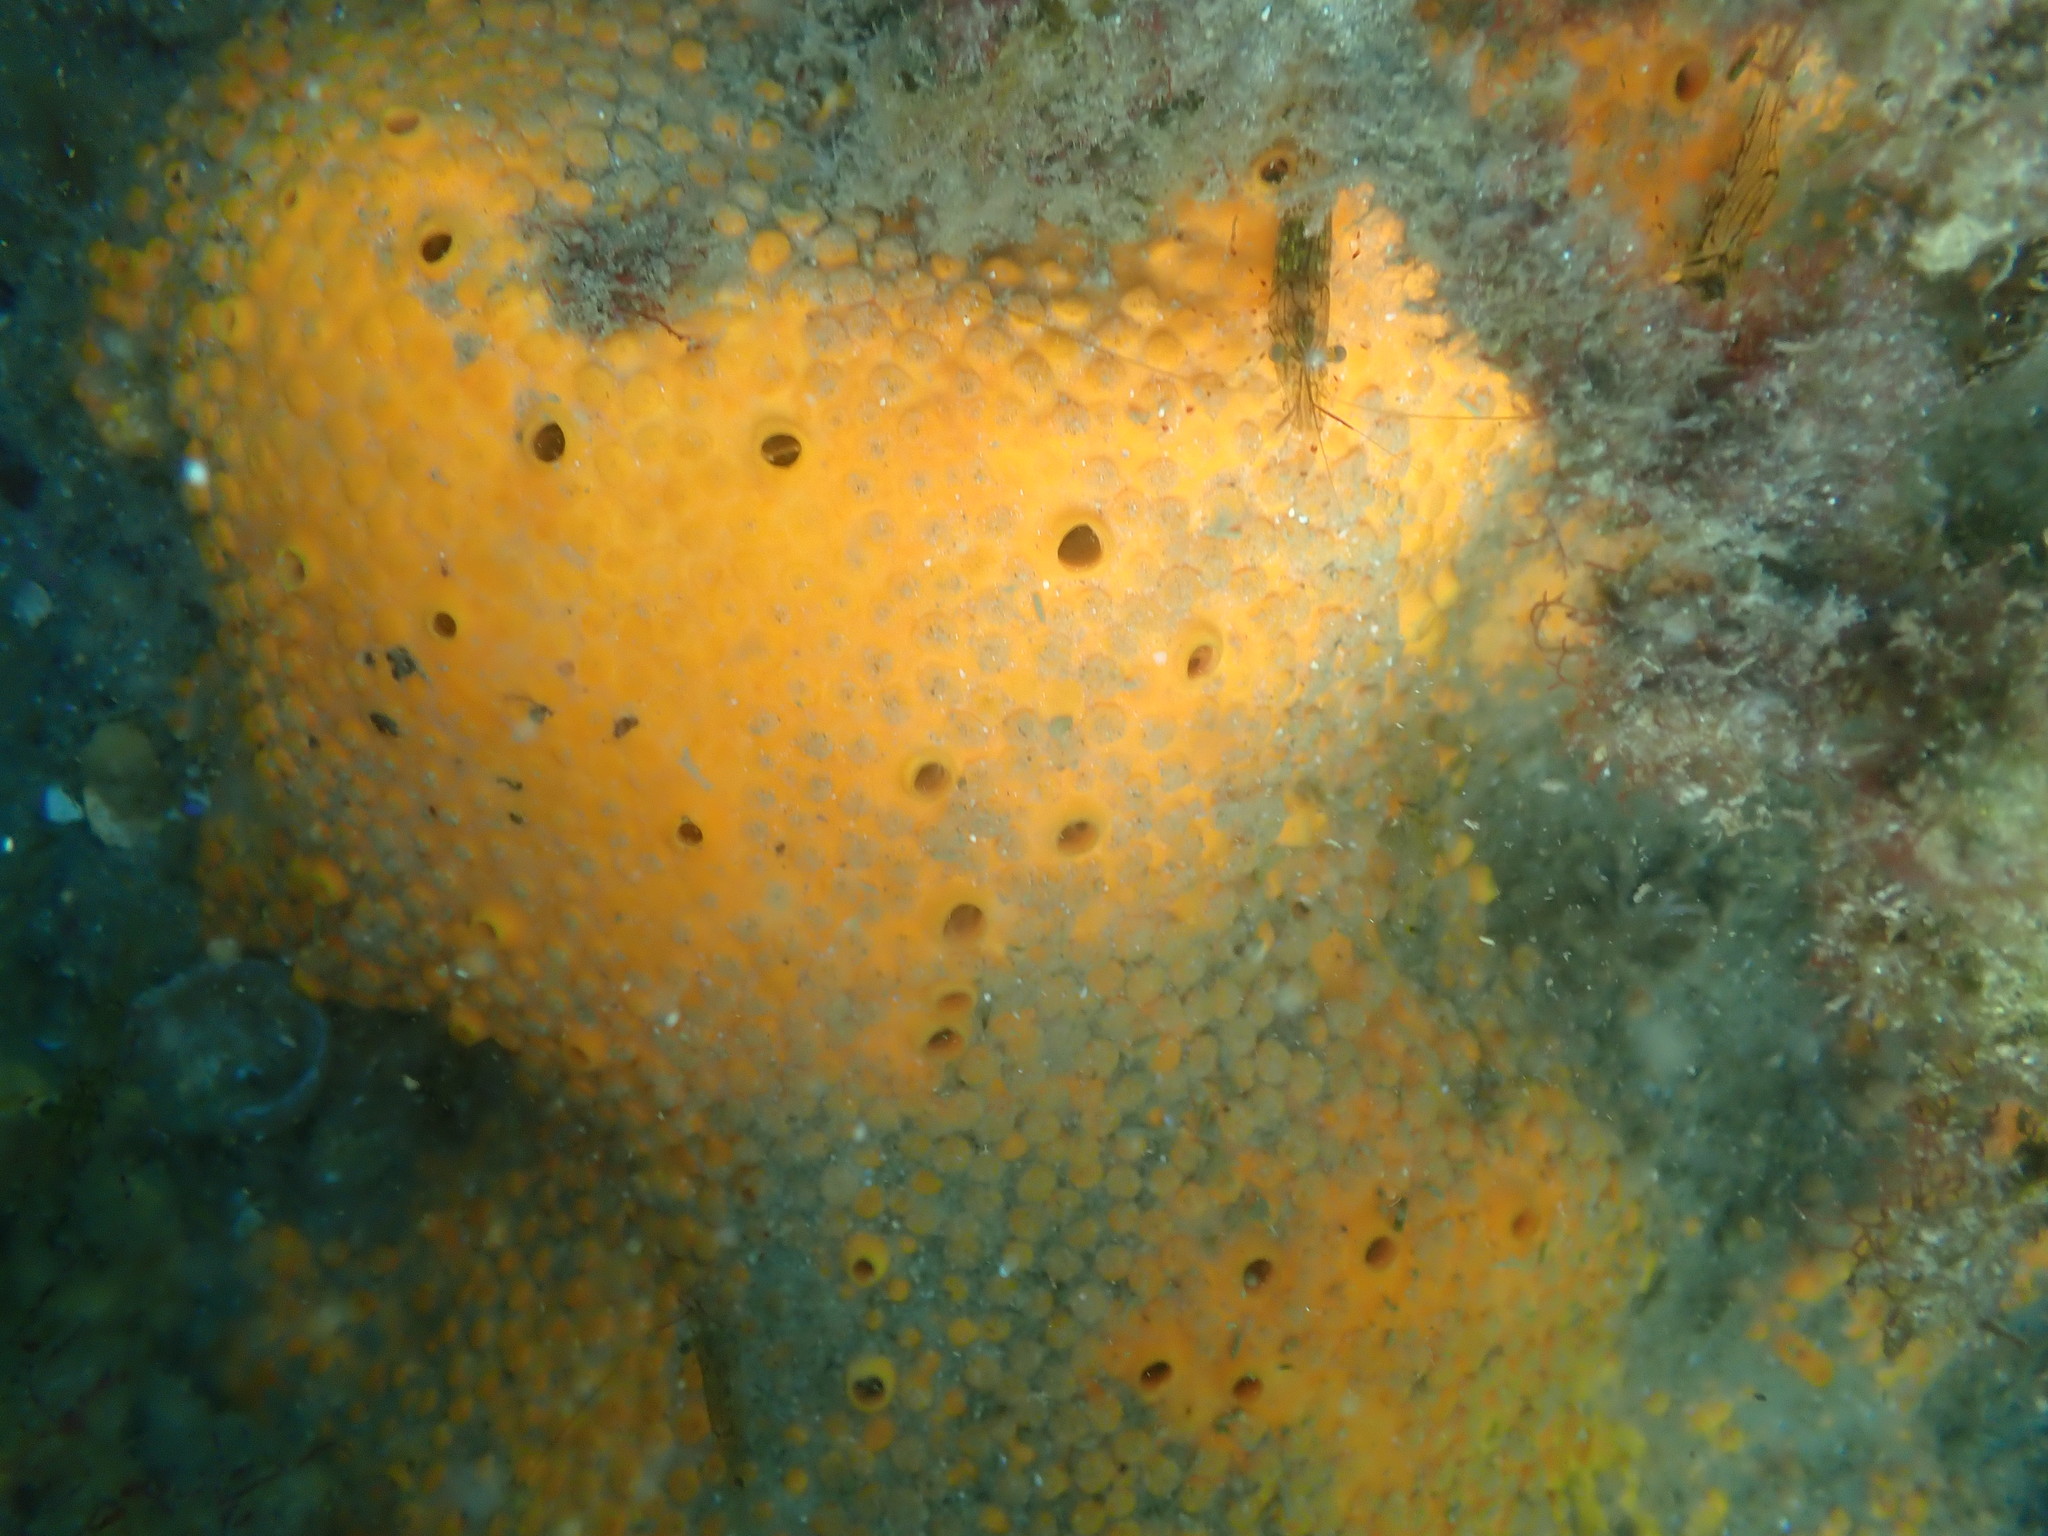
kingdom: Animalia
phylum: Porifera
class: Demospongiae
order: Clionaida
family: Clionaidae
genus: Cliona
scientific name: Cliona celata
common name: Boring sponge
